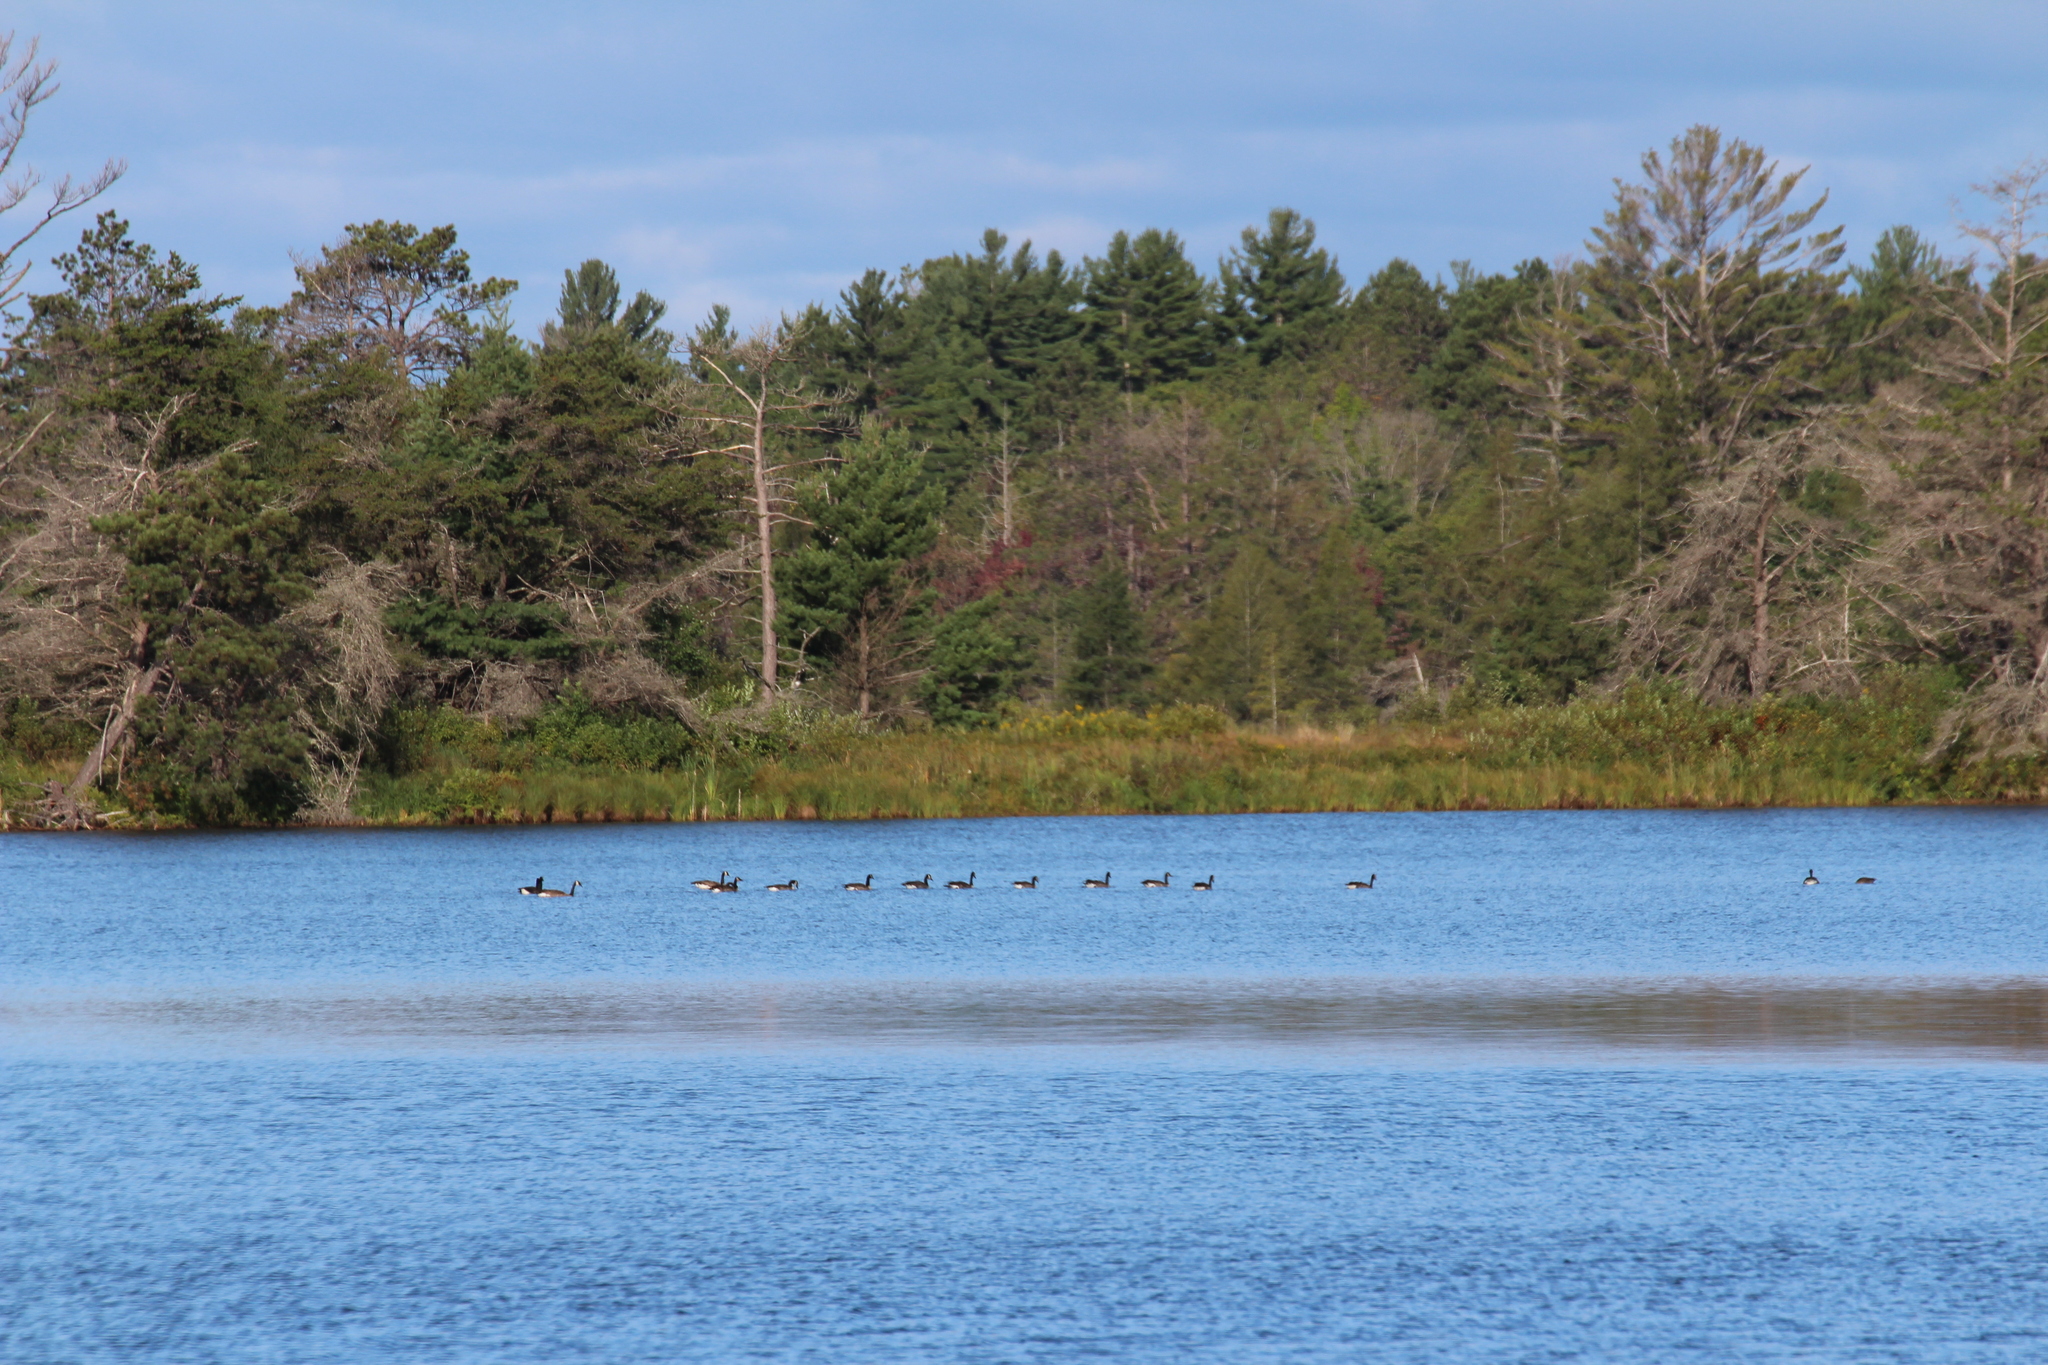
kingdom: Animalia
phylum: Chordata
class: Aves
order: Anseriformes
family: Anatidae
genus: Branta
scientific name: Branta canadensis
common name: Canada goose
